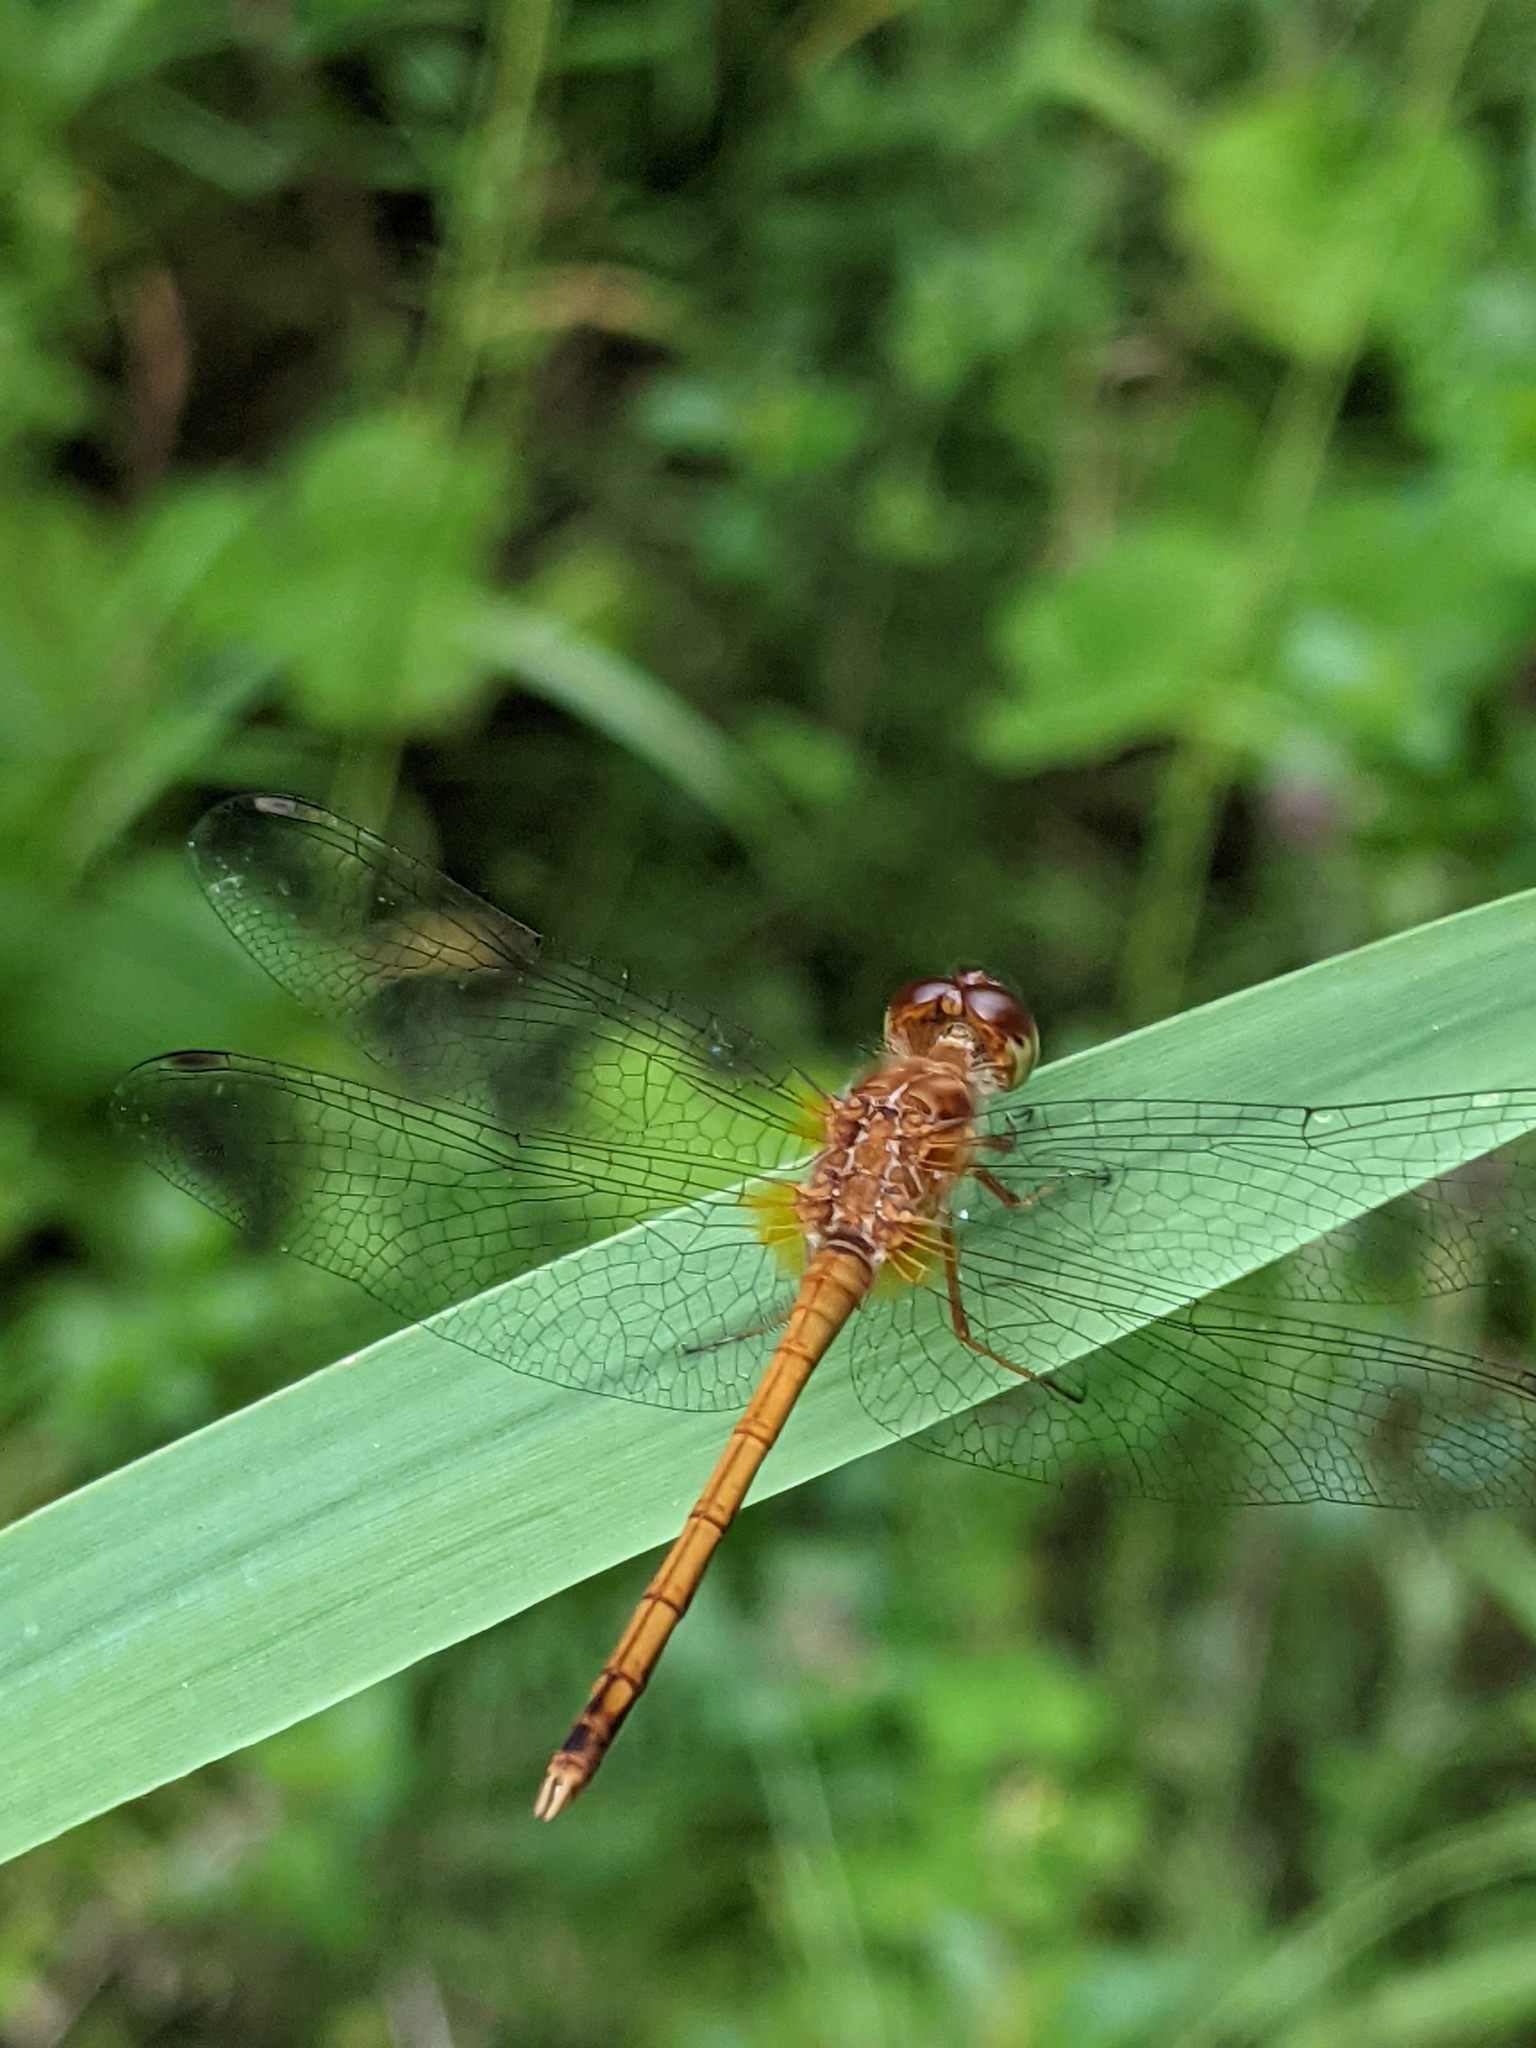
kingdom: Animalia
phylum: Arthropoda
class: Insecta
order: Odonata
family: Libellulidae
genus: Sympetrum
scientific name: Sympetrum vicinum
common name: Autumn meadowhawk
